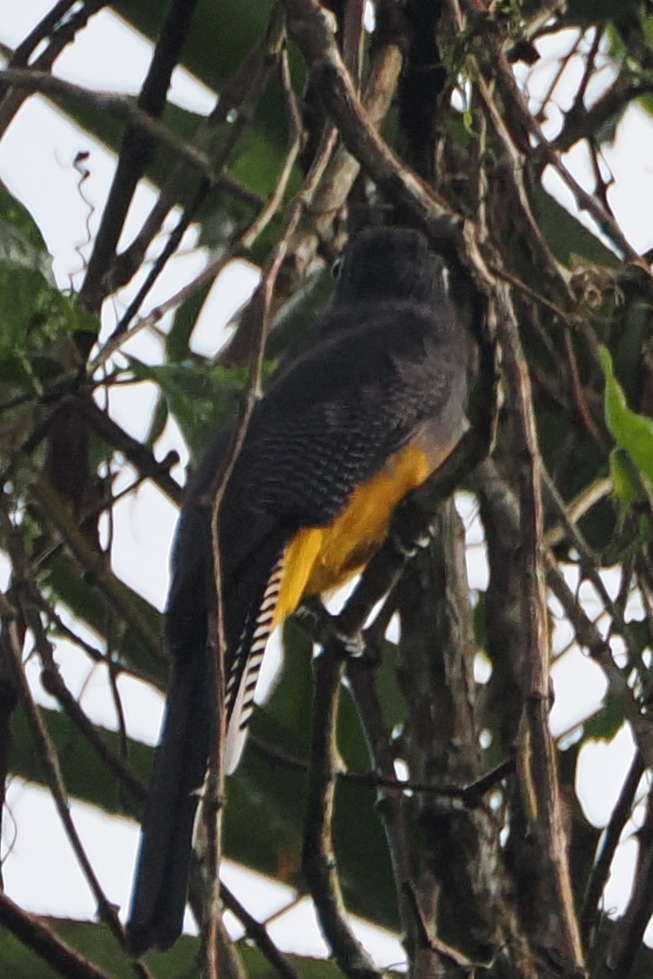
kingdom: Animalia
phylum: Chordata
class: Aves
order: Trogoniformes
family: Trogonidae
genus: Trogon
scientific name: Trogon violaceus
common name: Guianan trogon
